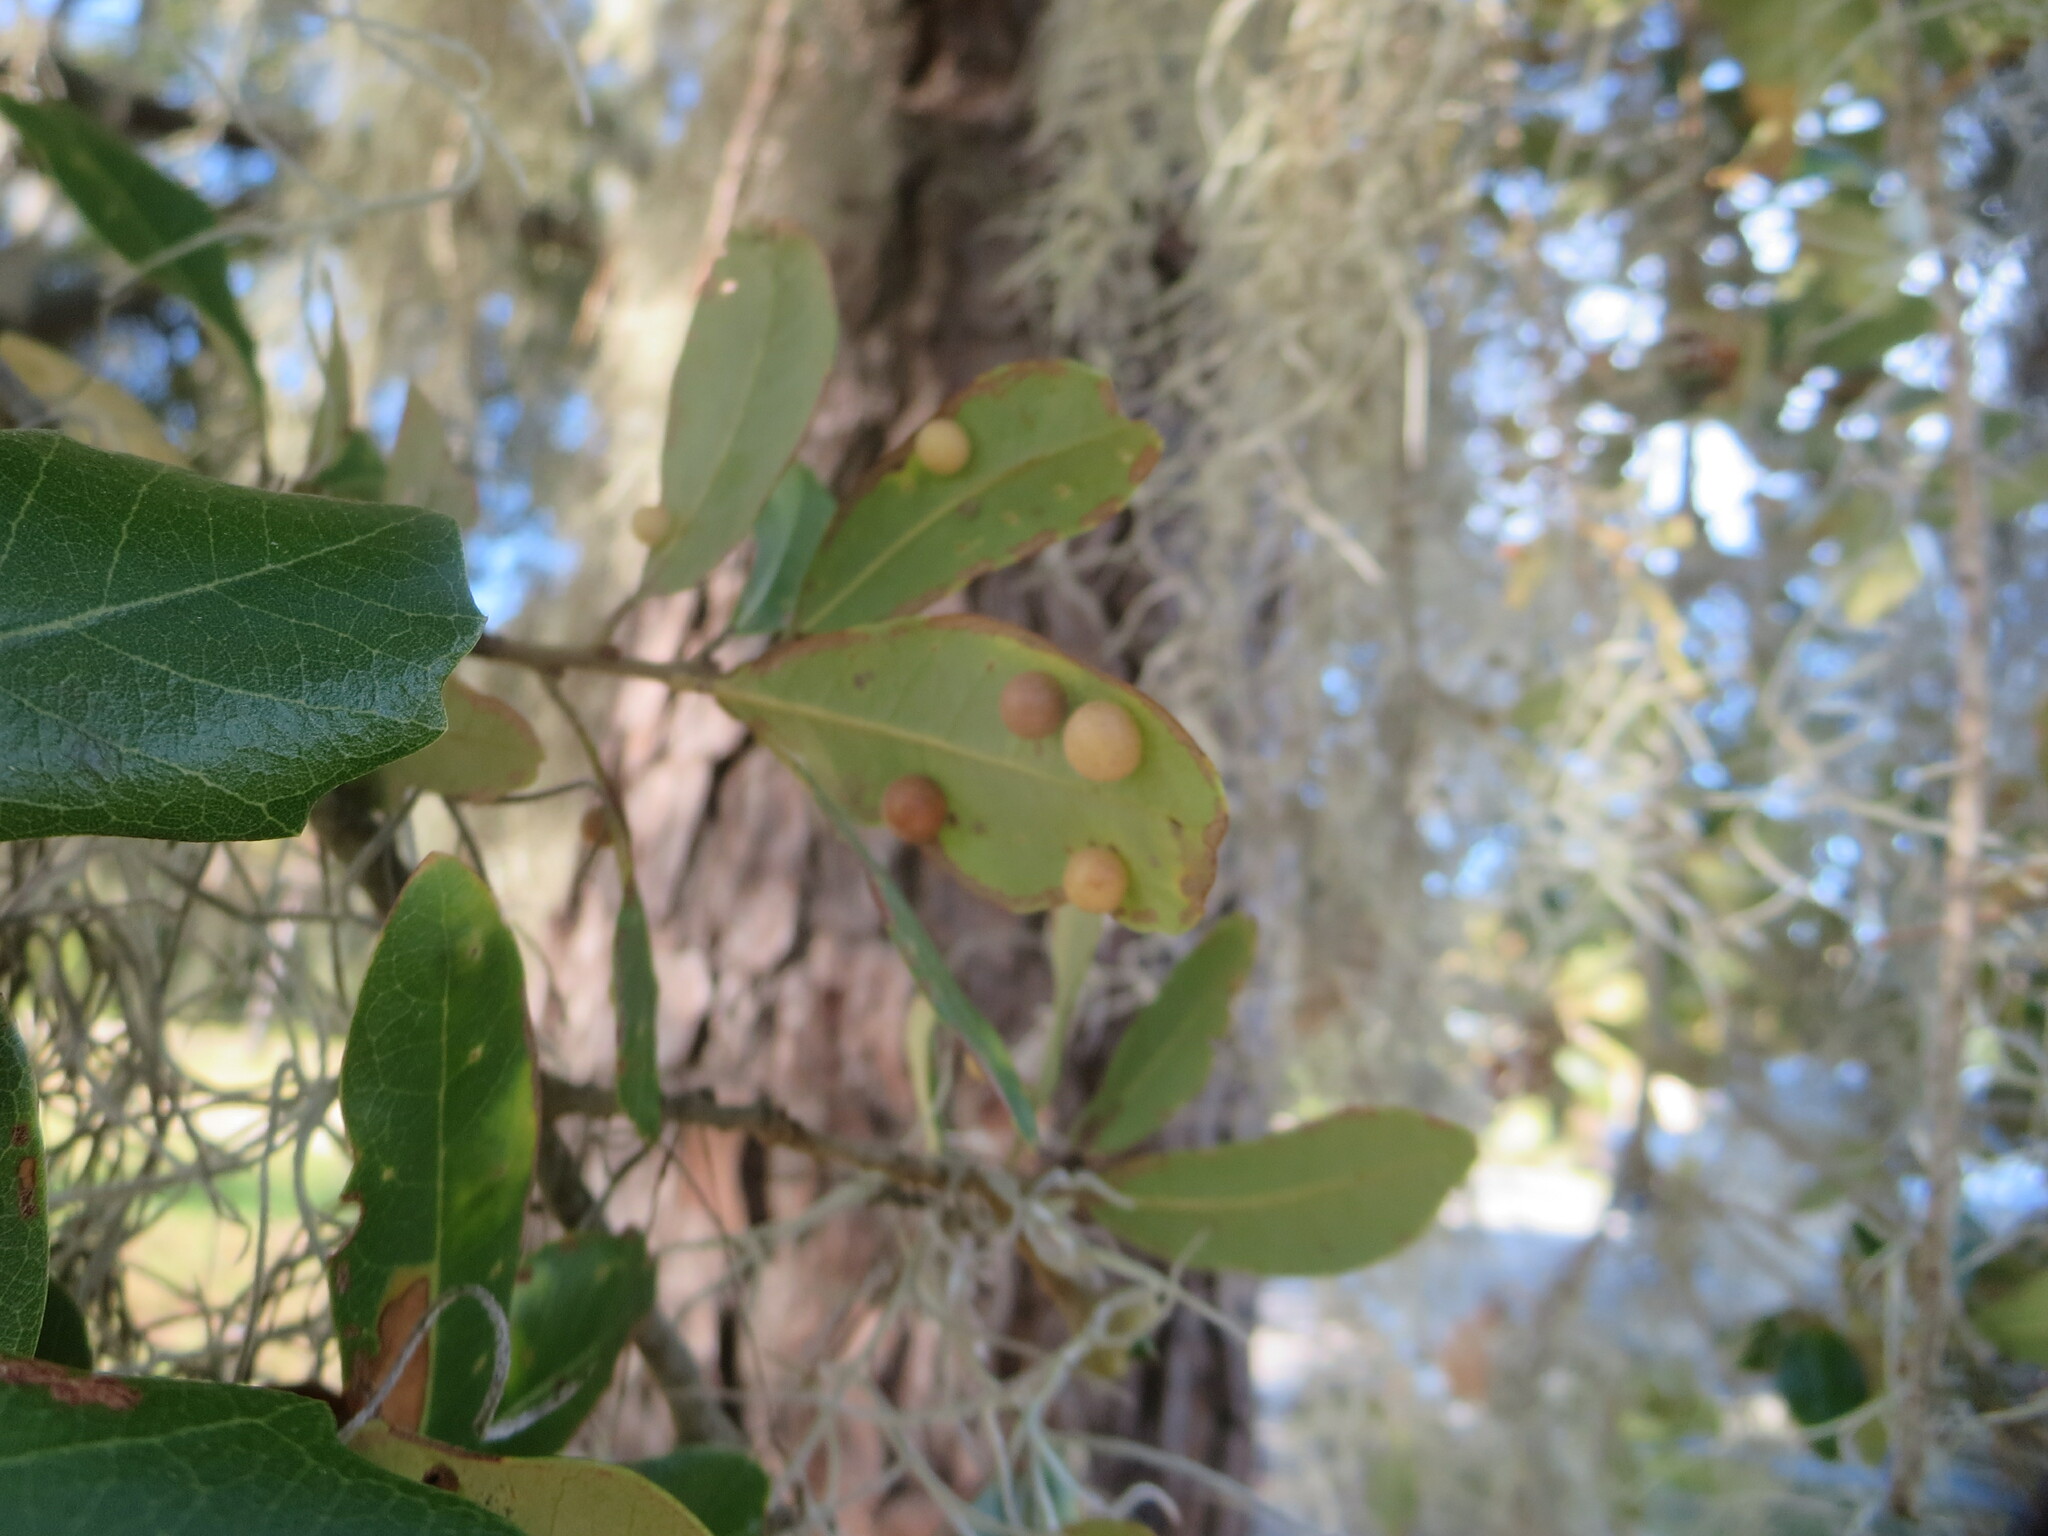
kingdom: Animalia
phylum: Arthropoda
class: Insecta
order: Hymenoptera
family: Cynipidae
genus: Belonocnema
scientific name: Belonocnema treatae
